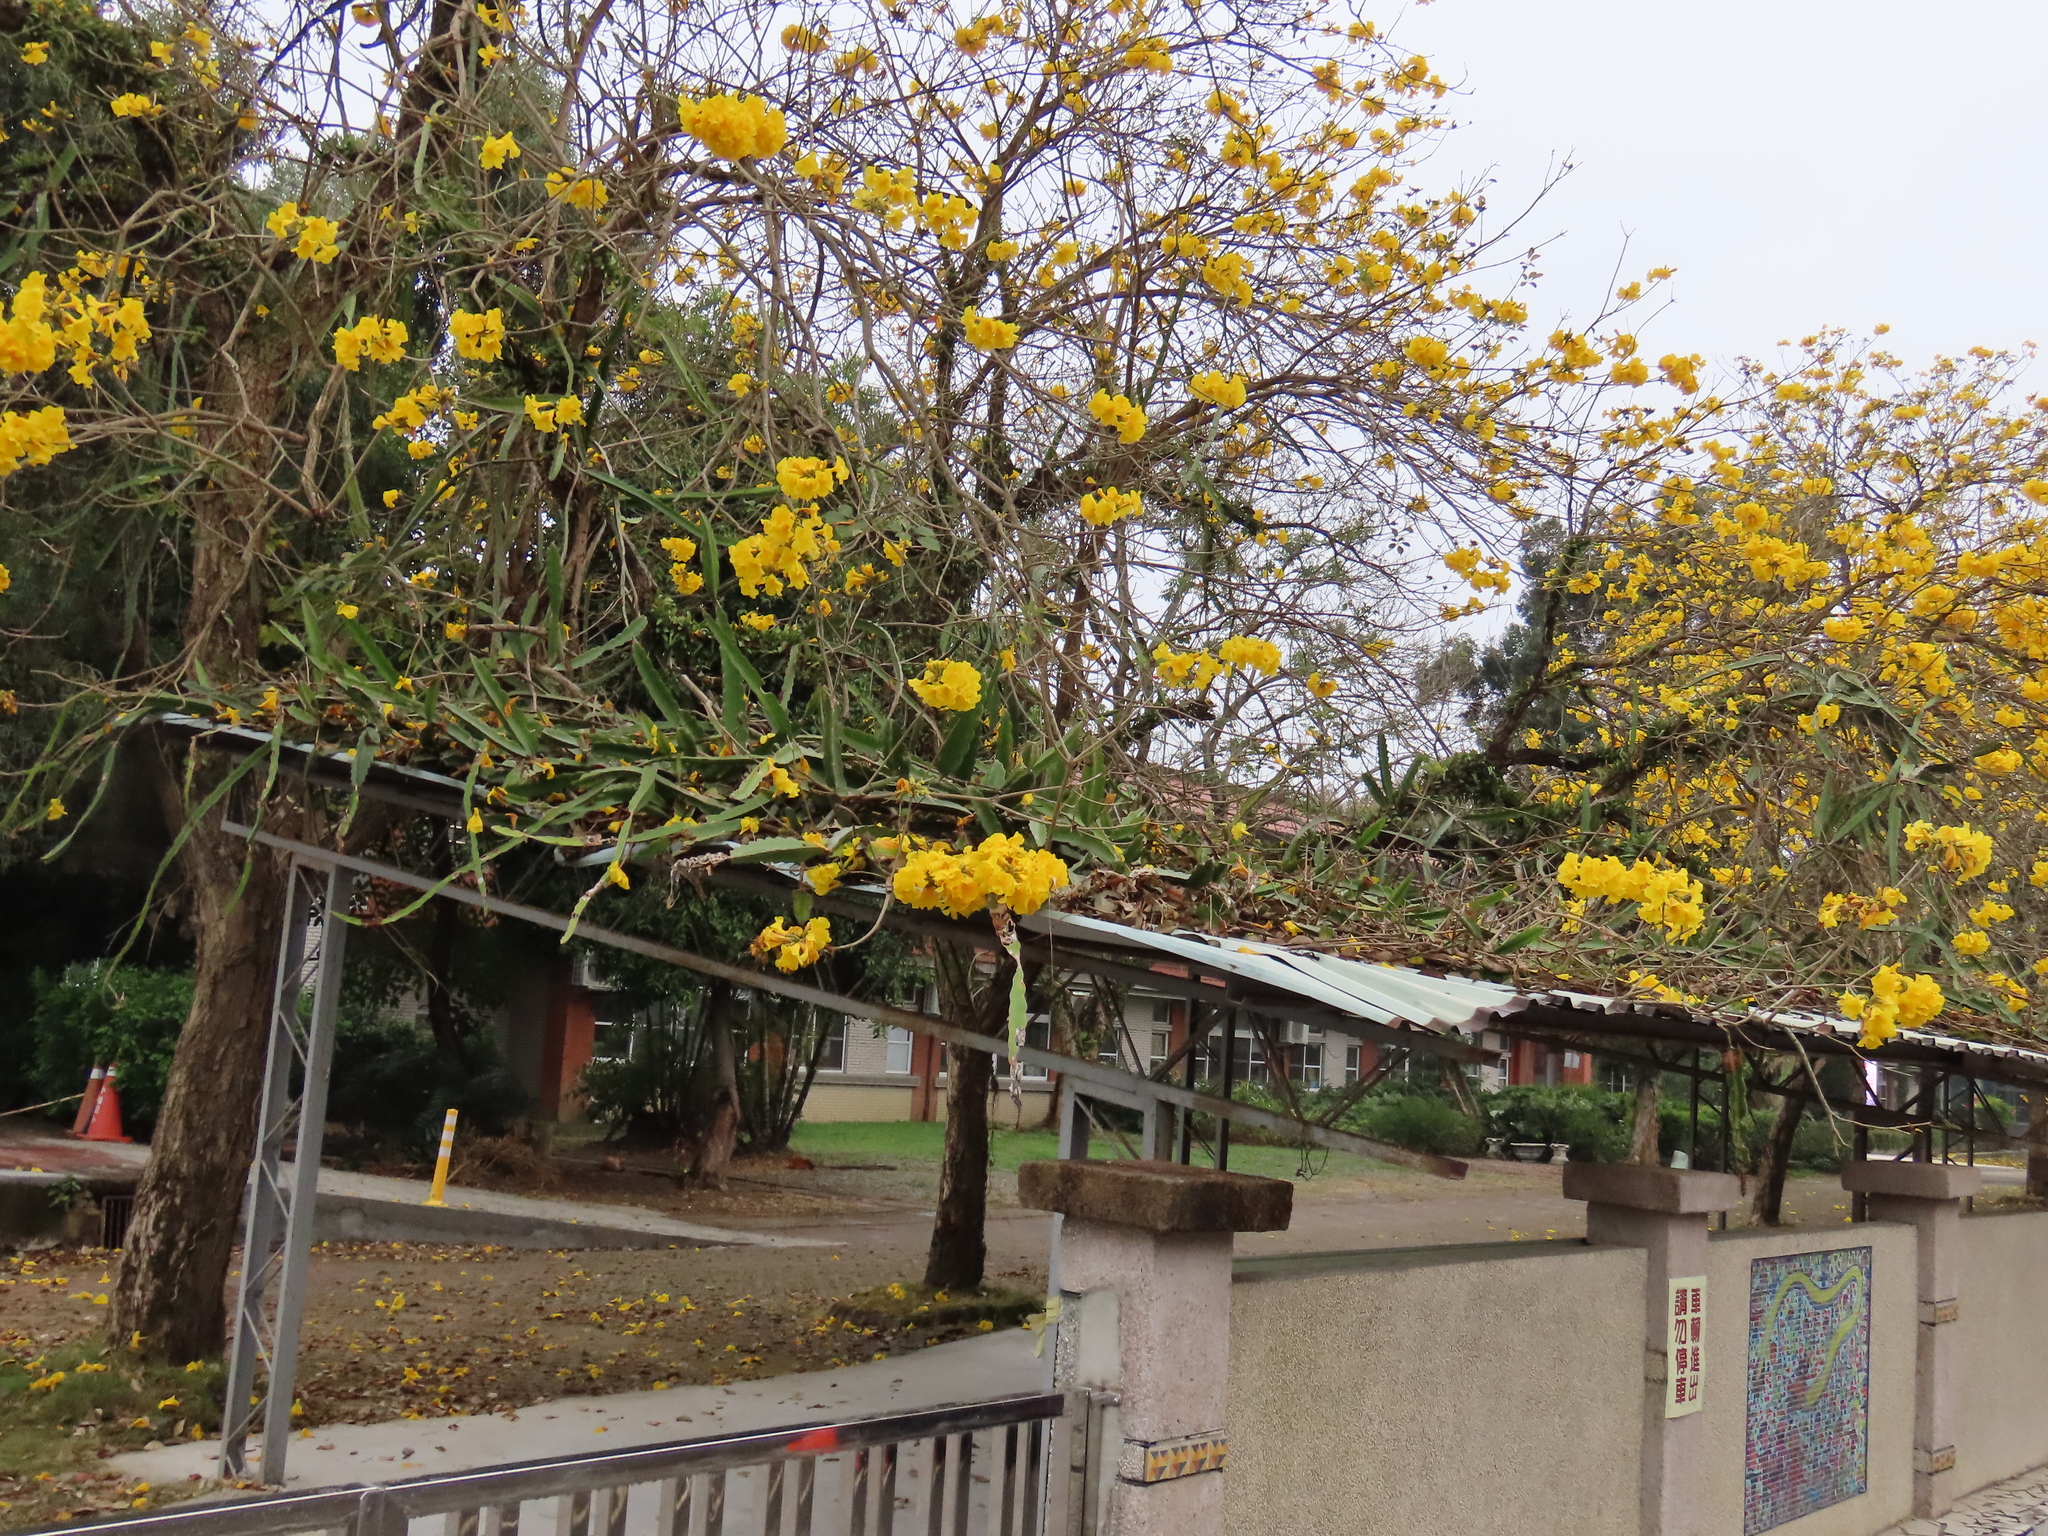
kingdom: Plantae
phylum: Tracheophyta
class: Magnoliopsida
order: Caryophyllales
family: Cactaceae
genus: Selenicereus
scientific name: Selenicereus undatus
